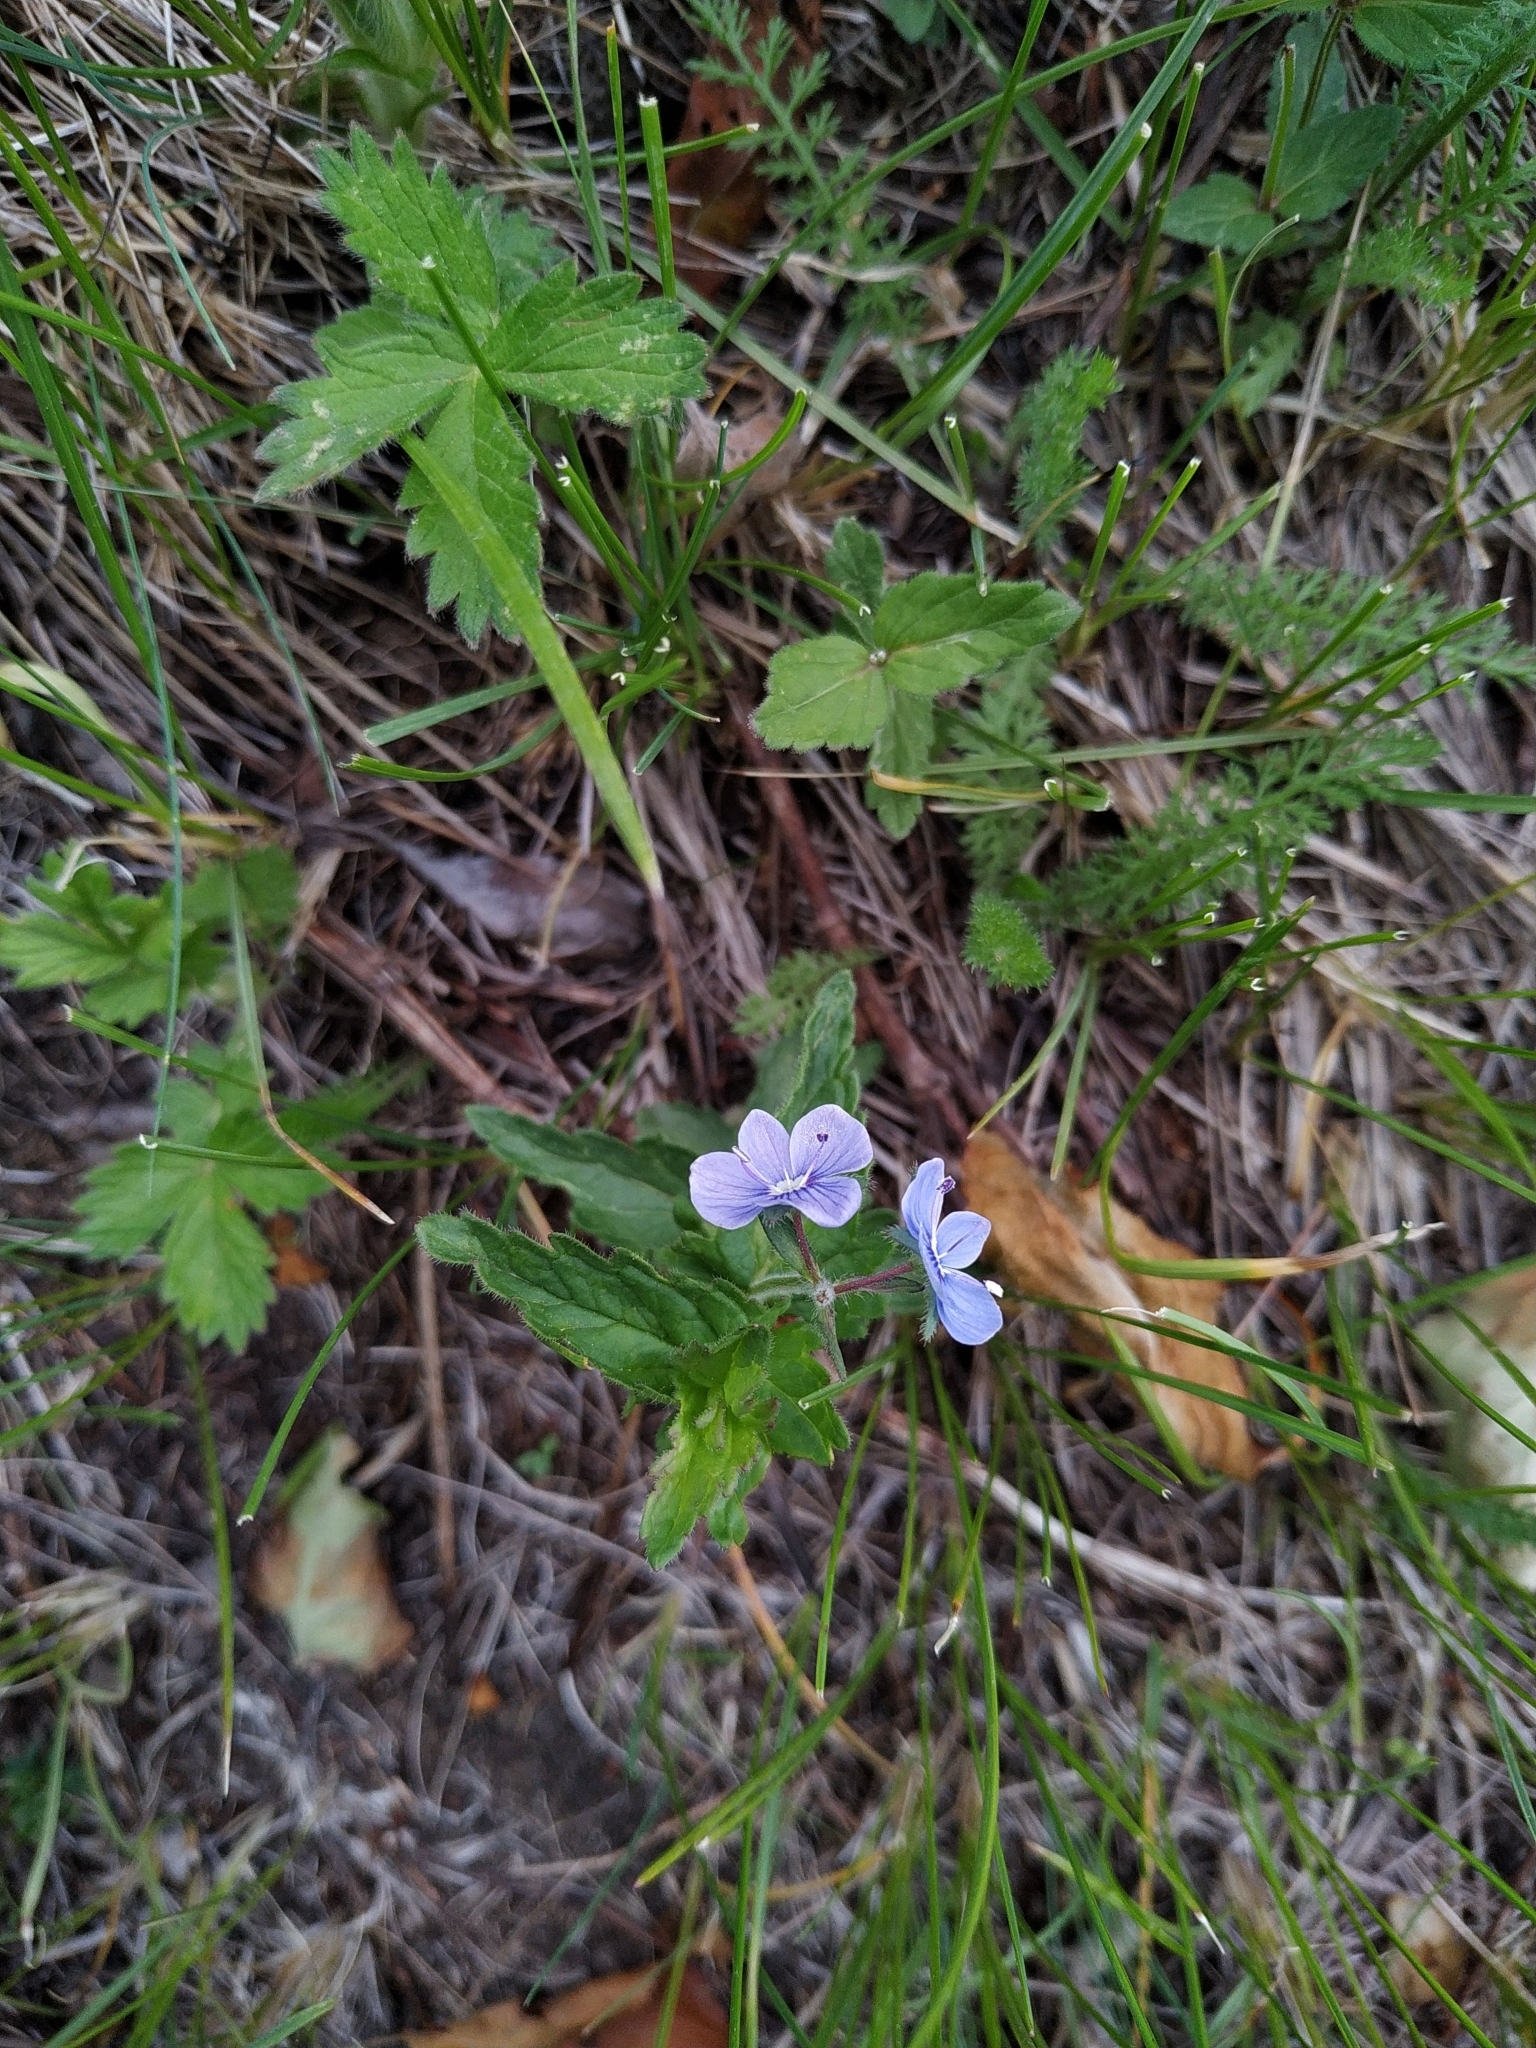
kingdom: Plantae
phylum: Tracheophyta
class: Magnoliopsida
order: Lamiales
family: Plantaginaceae
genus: Veronica
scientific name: Veronica chamaedrys
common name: Germander speedwell
